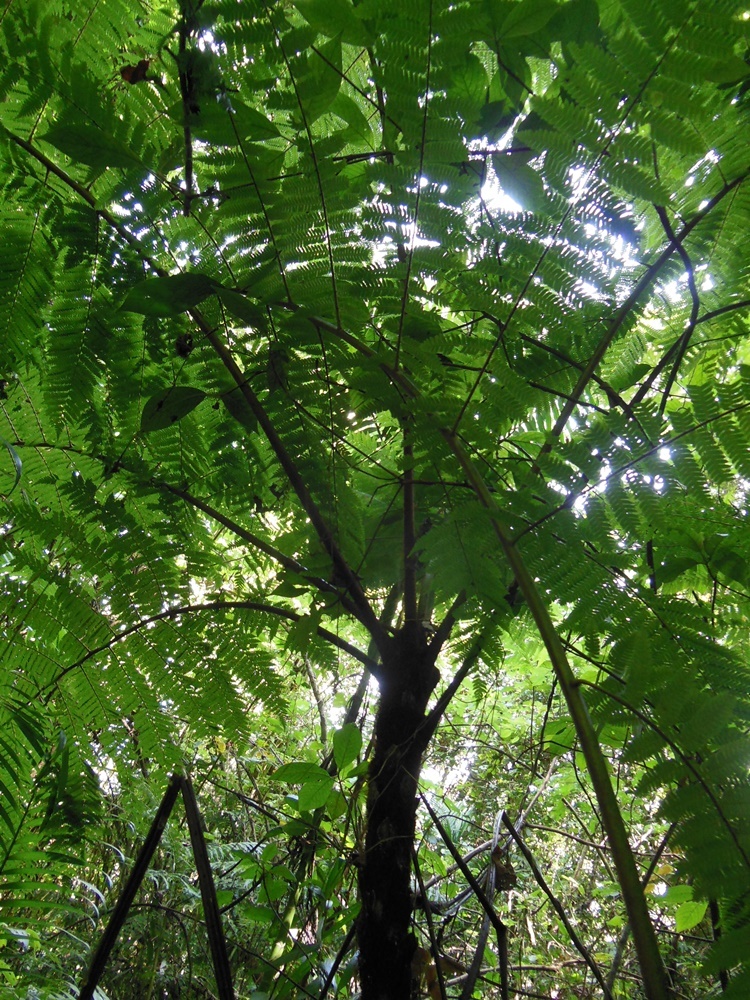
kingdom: Plantae
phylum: Tracheophyta
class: Polypodiopsida
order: Cyatheales
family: Cyatheaceae
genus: Alsophila
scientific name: Alsophila firma
